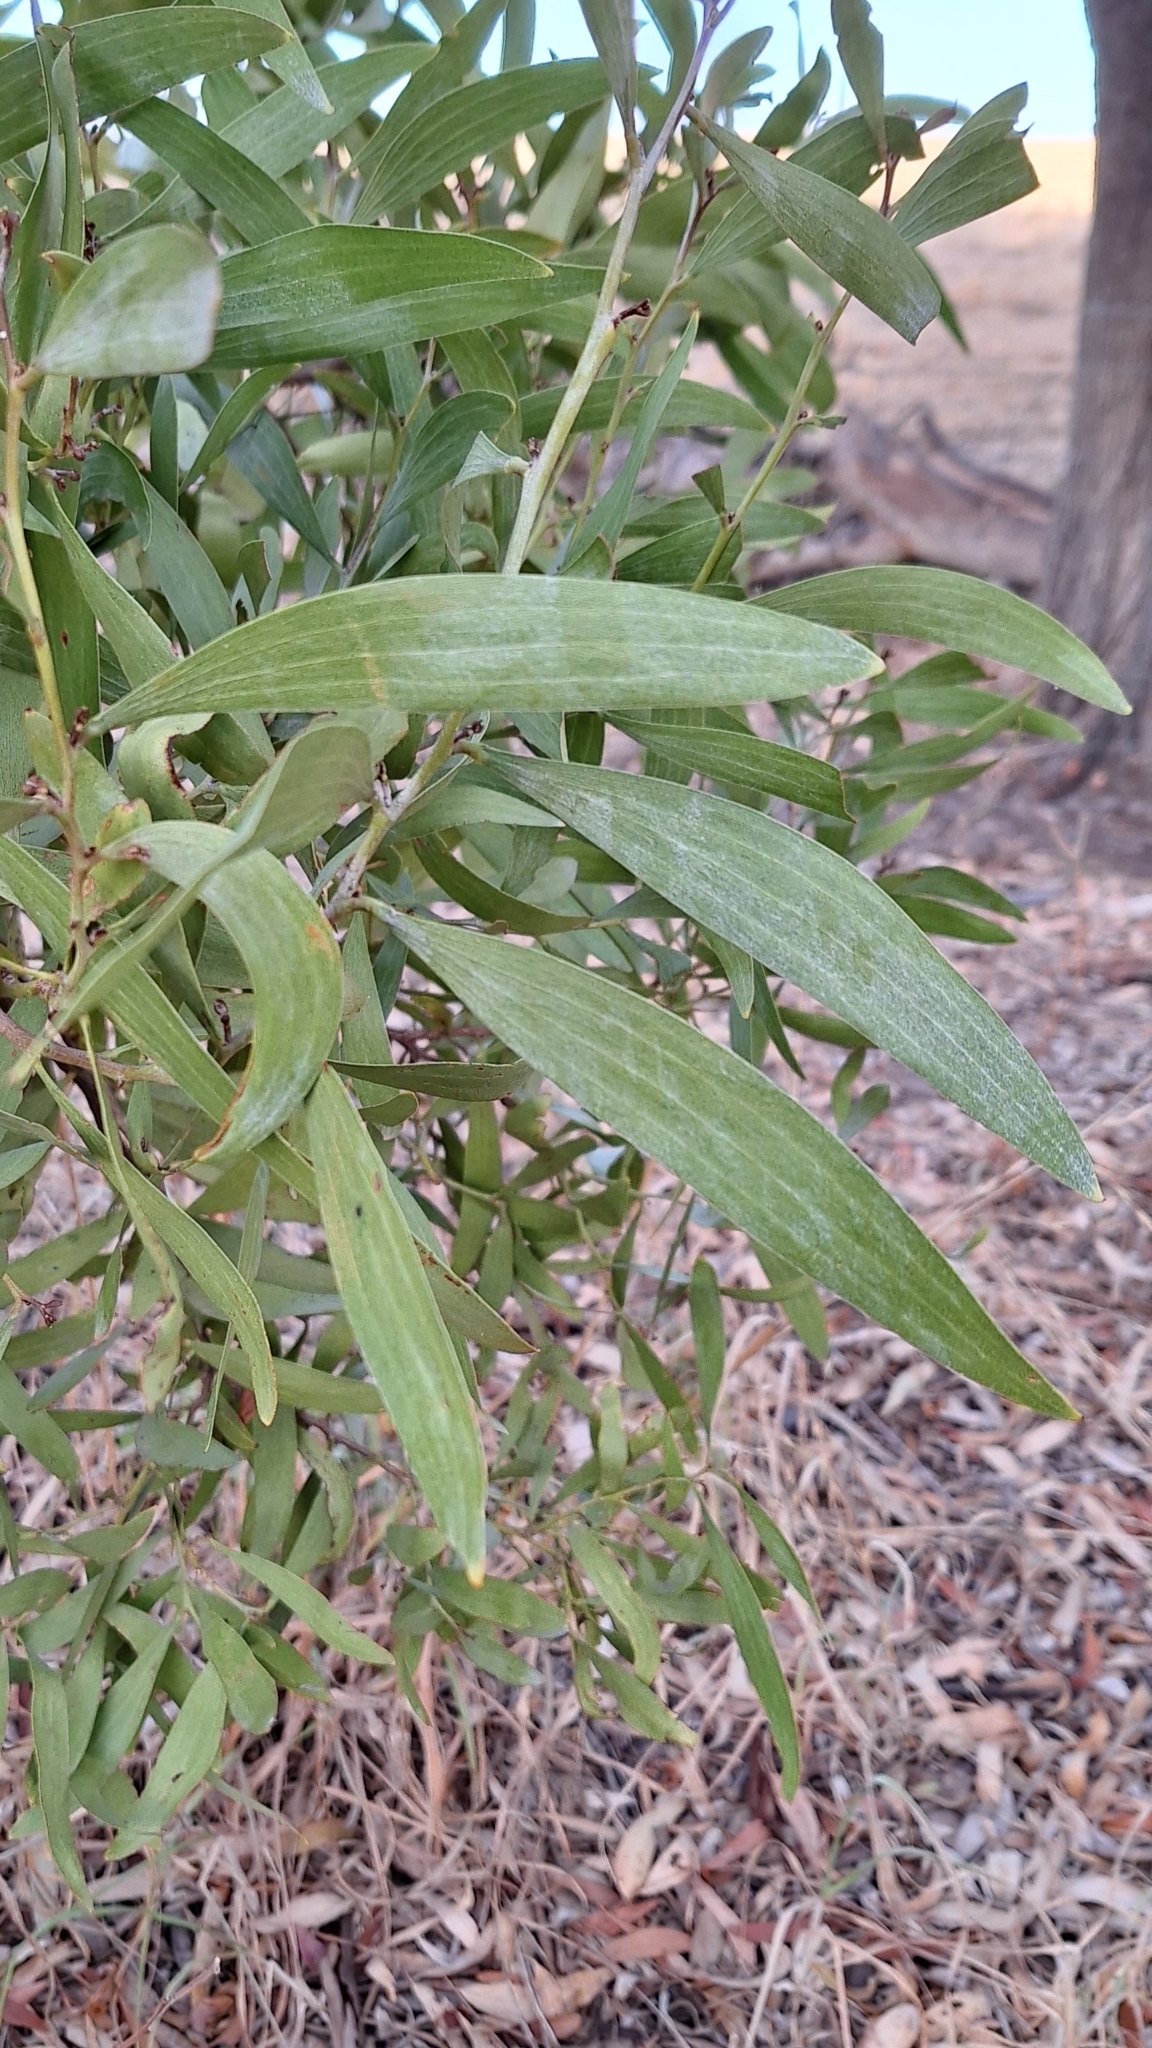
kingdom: Plantae
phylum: Tracheophyta
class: Magnoliopsida
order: Fabales
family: Fabaceae
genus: Acacia
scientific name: Acacia melanoxylon
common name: Blackwood
